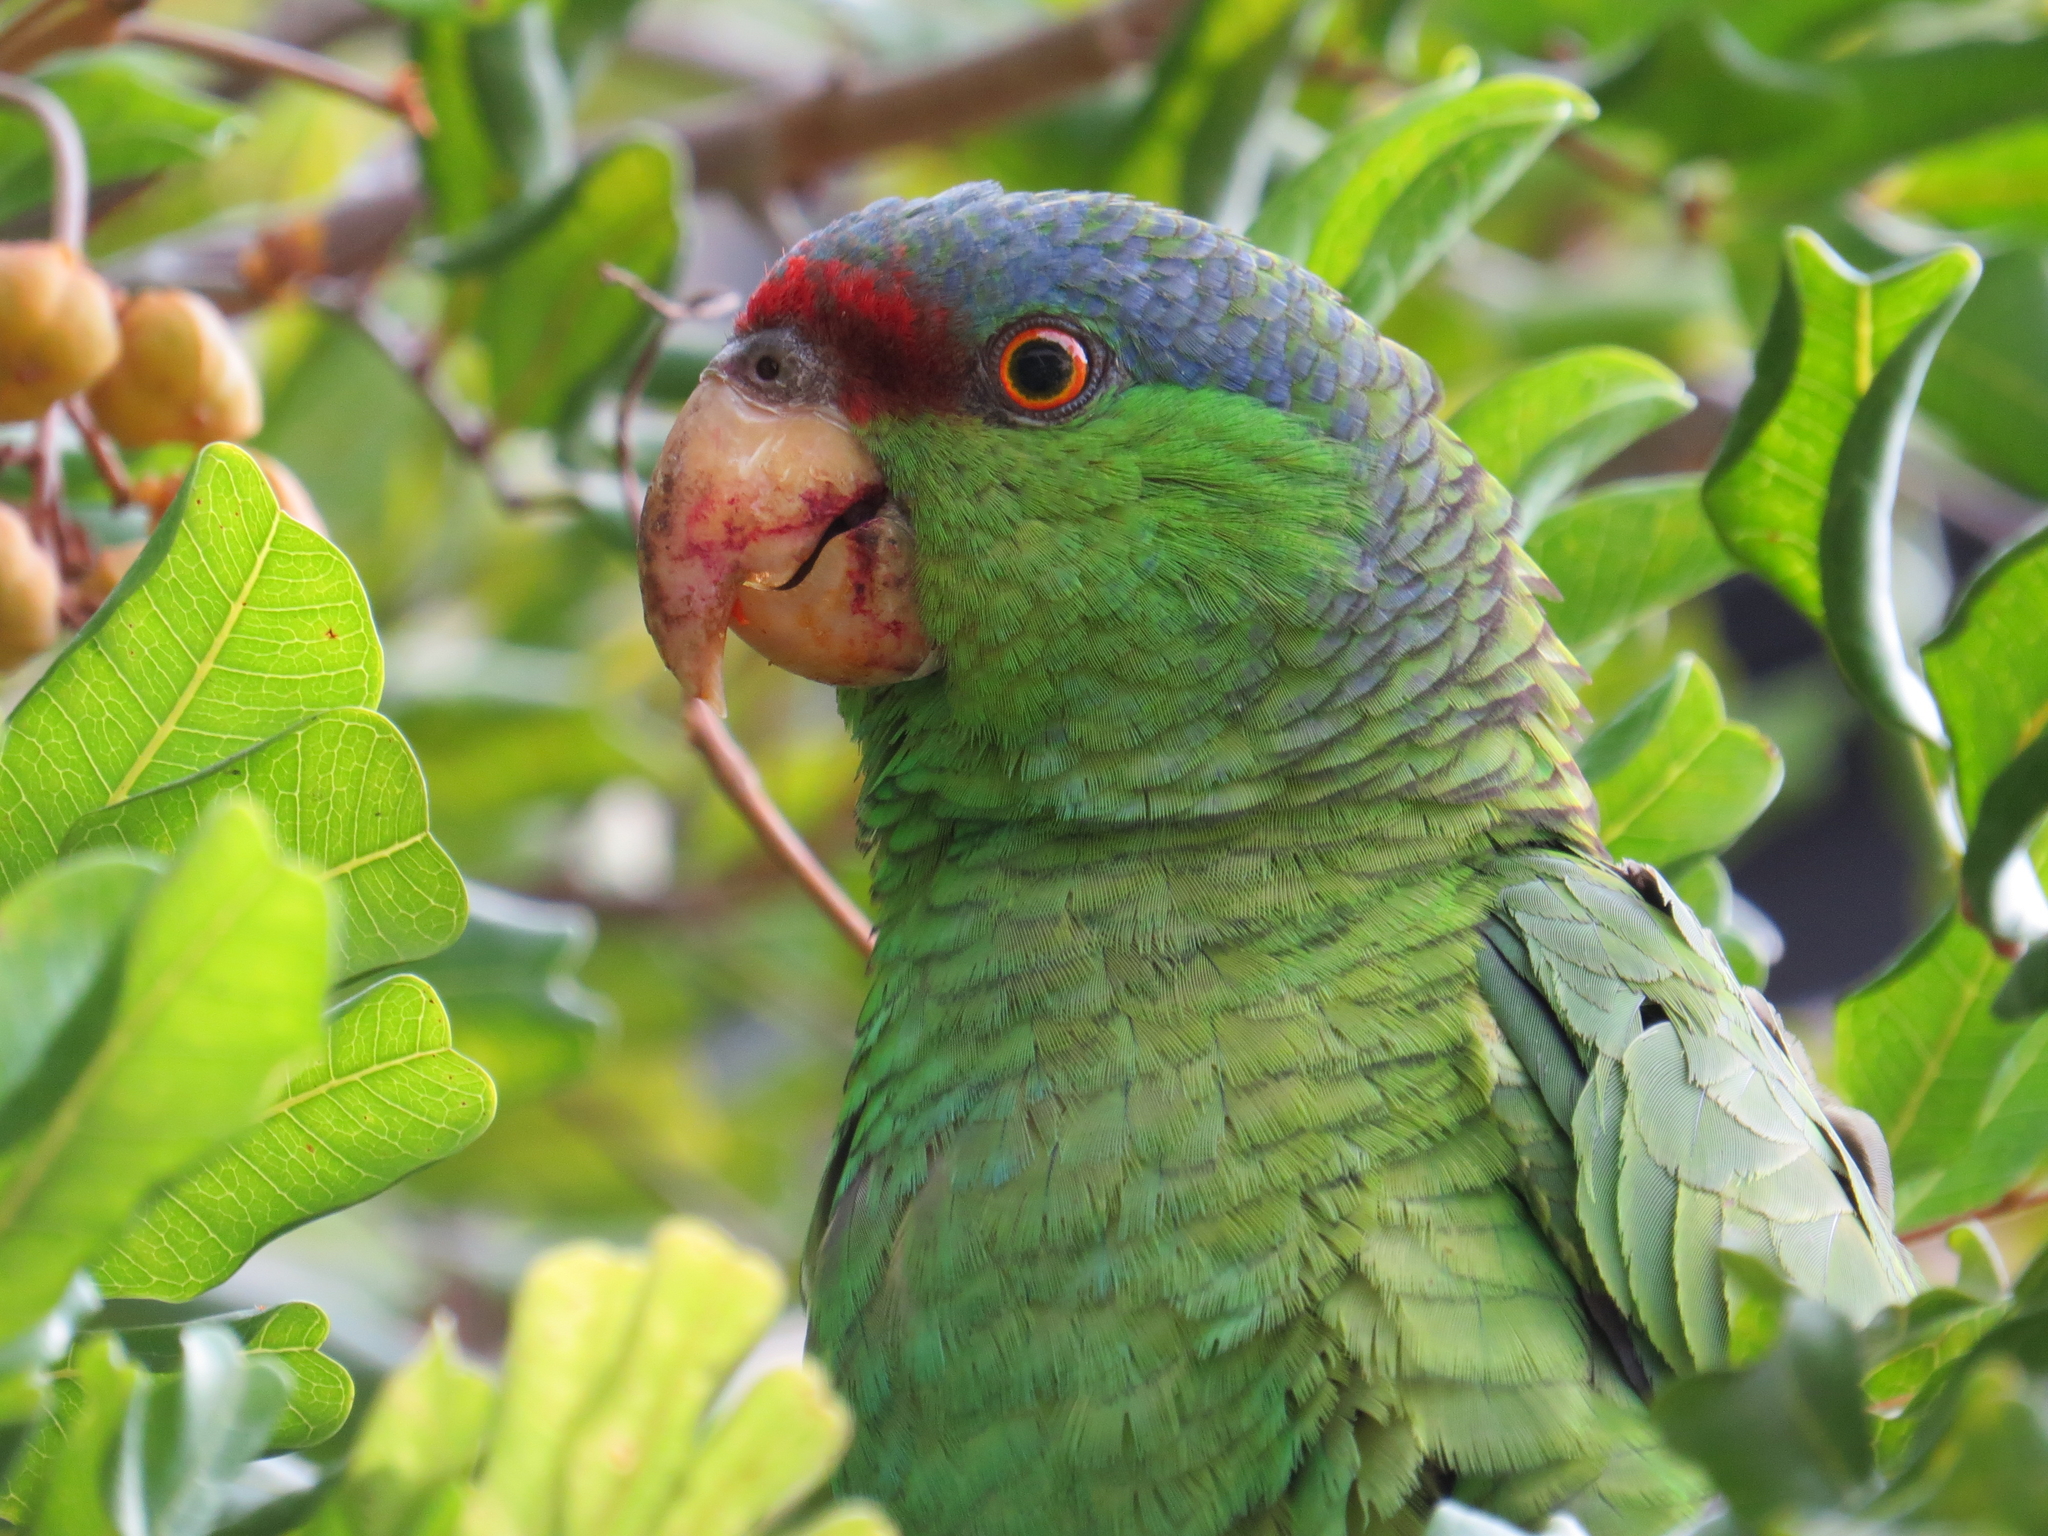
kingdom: Animalia
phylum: Chordata
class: Aves
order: Psittaciformes
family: Psittacidae
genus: Amazona
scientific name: Amazona finschi
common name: Lilac-crowned amazon
